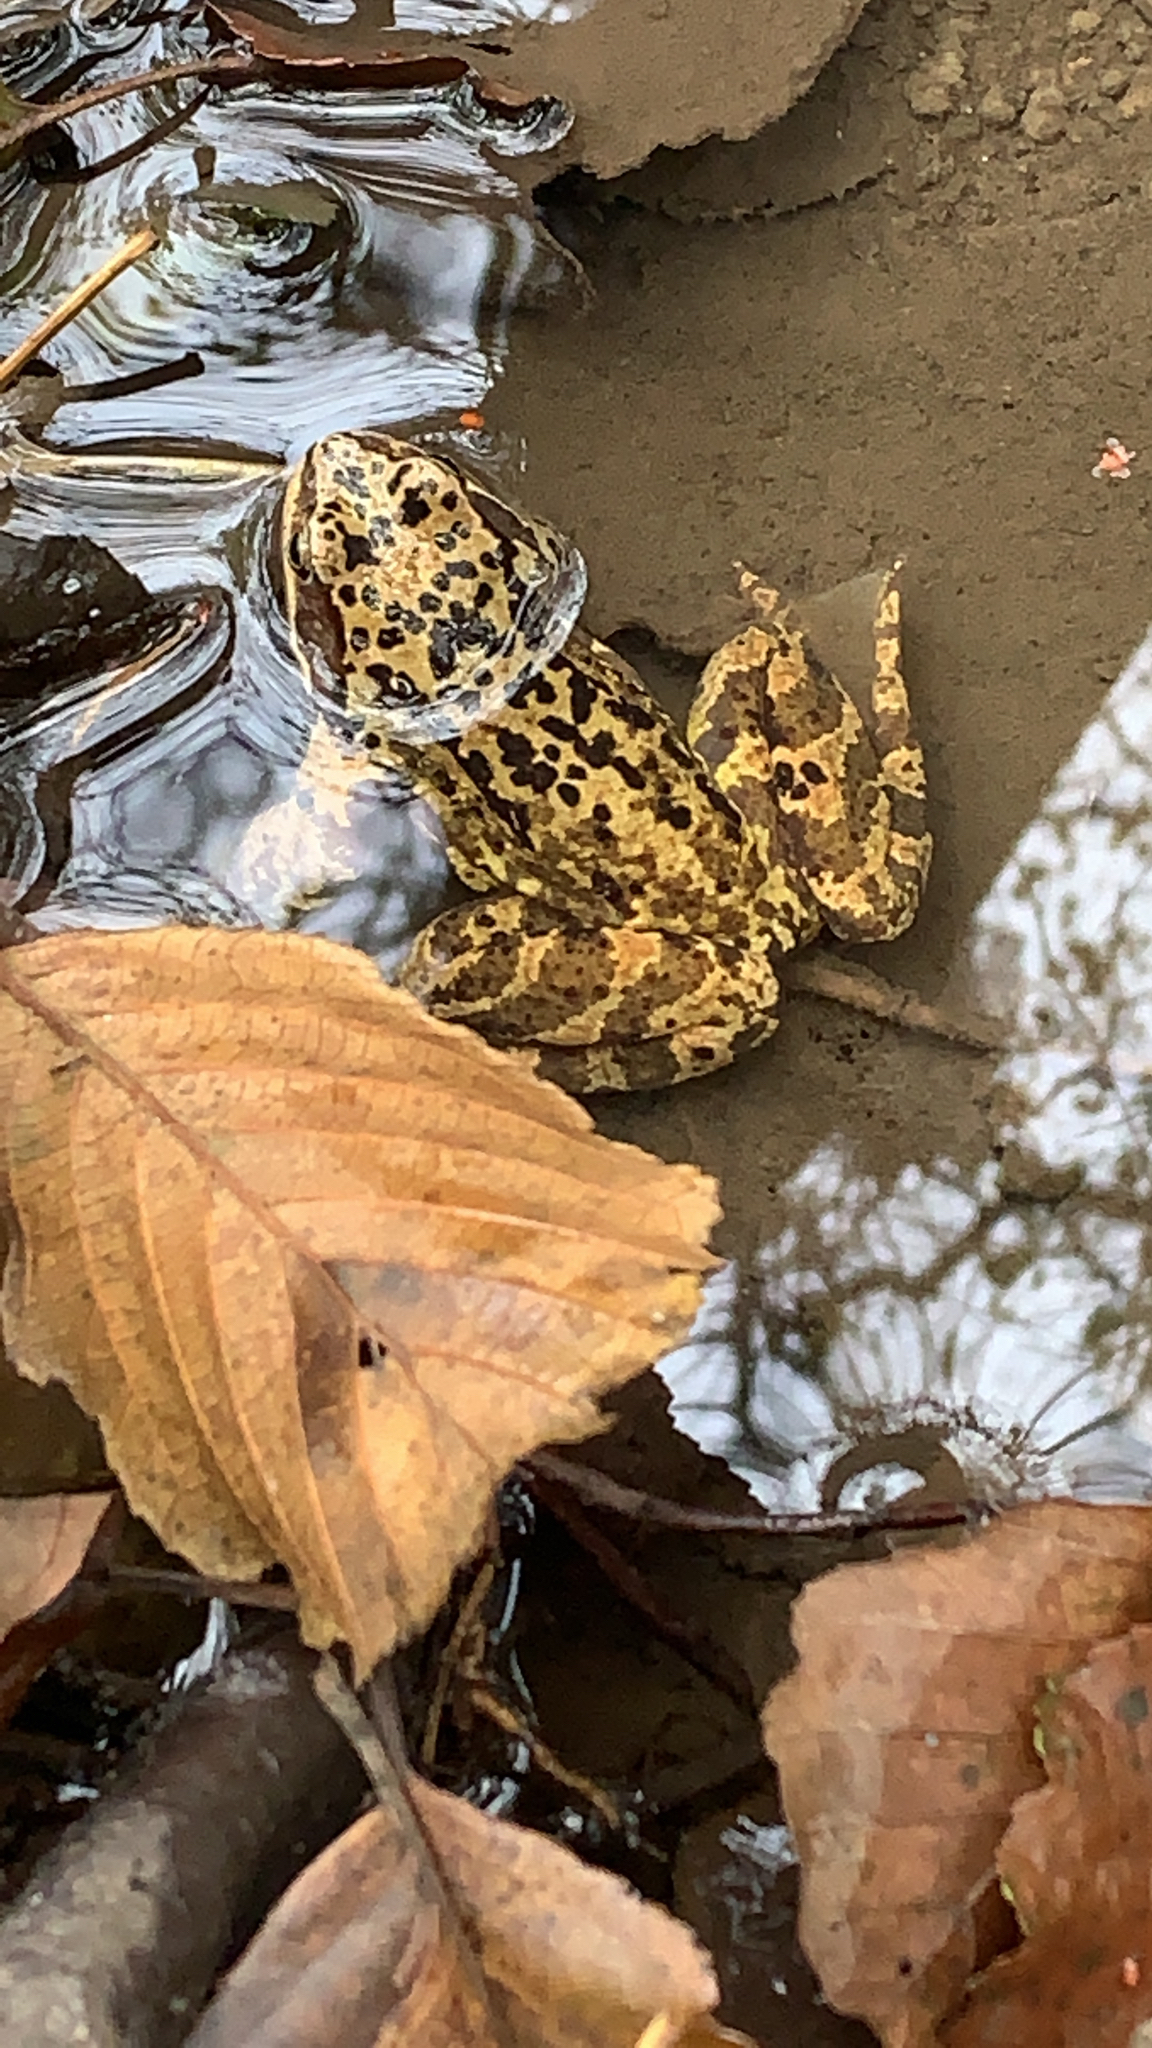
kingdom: Animalia
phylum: Chordata
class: Amphibia
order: Anura
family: Ranidae
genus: Rana
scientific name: Rana temporaria
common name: Common frog
